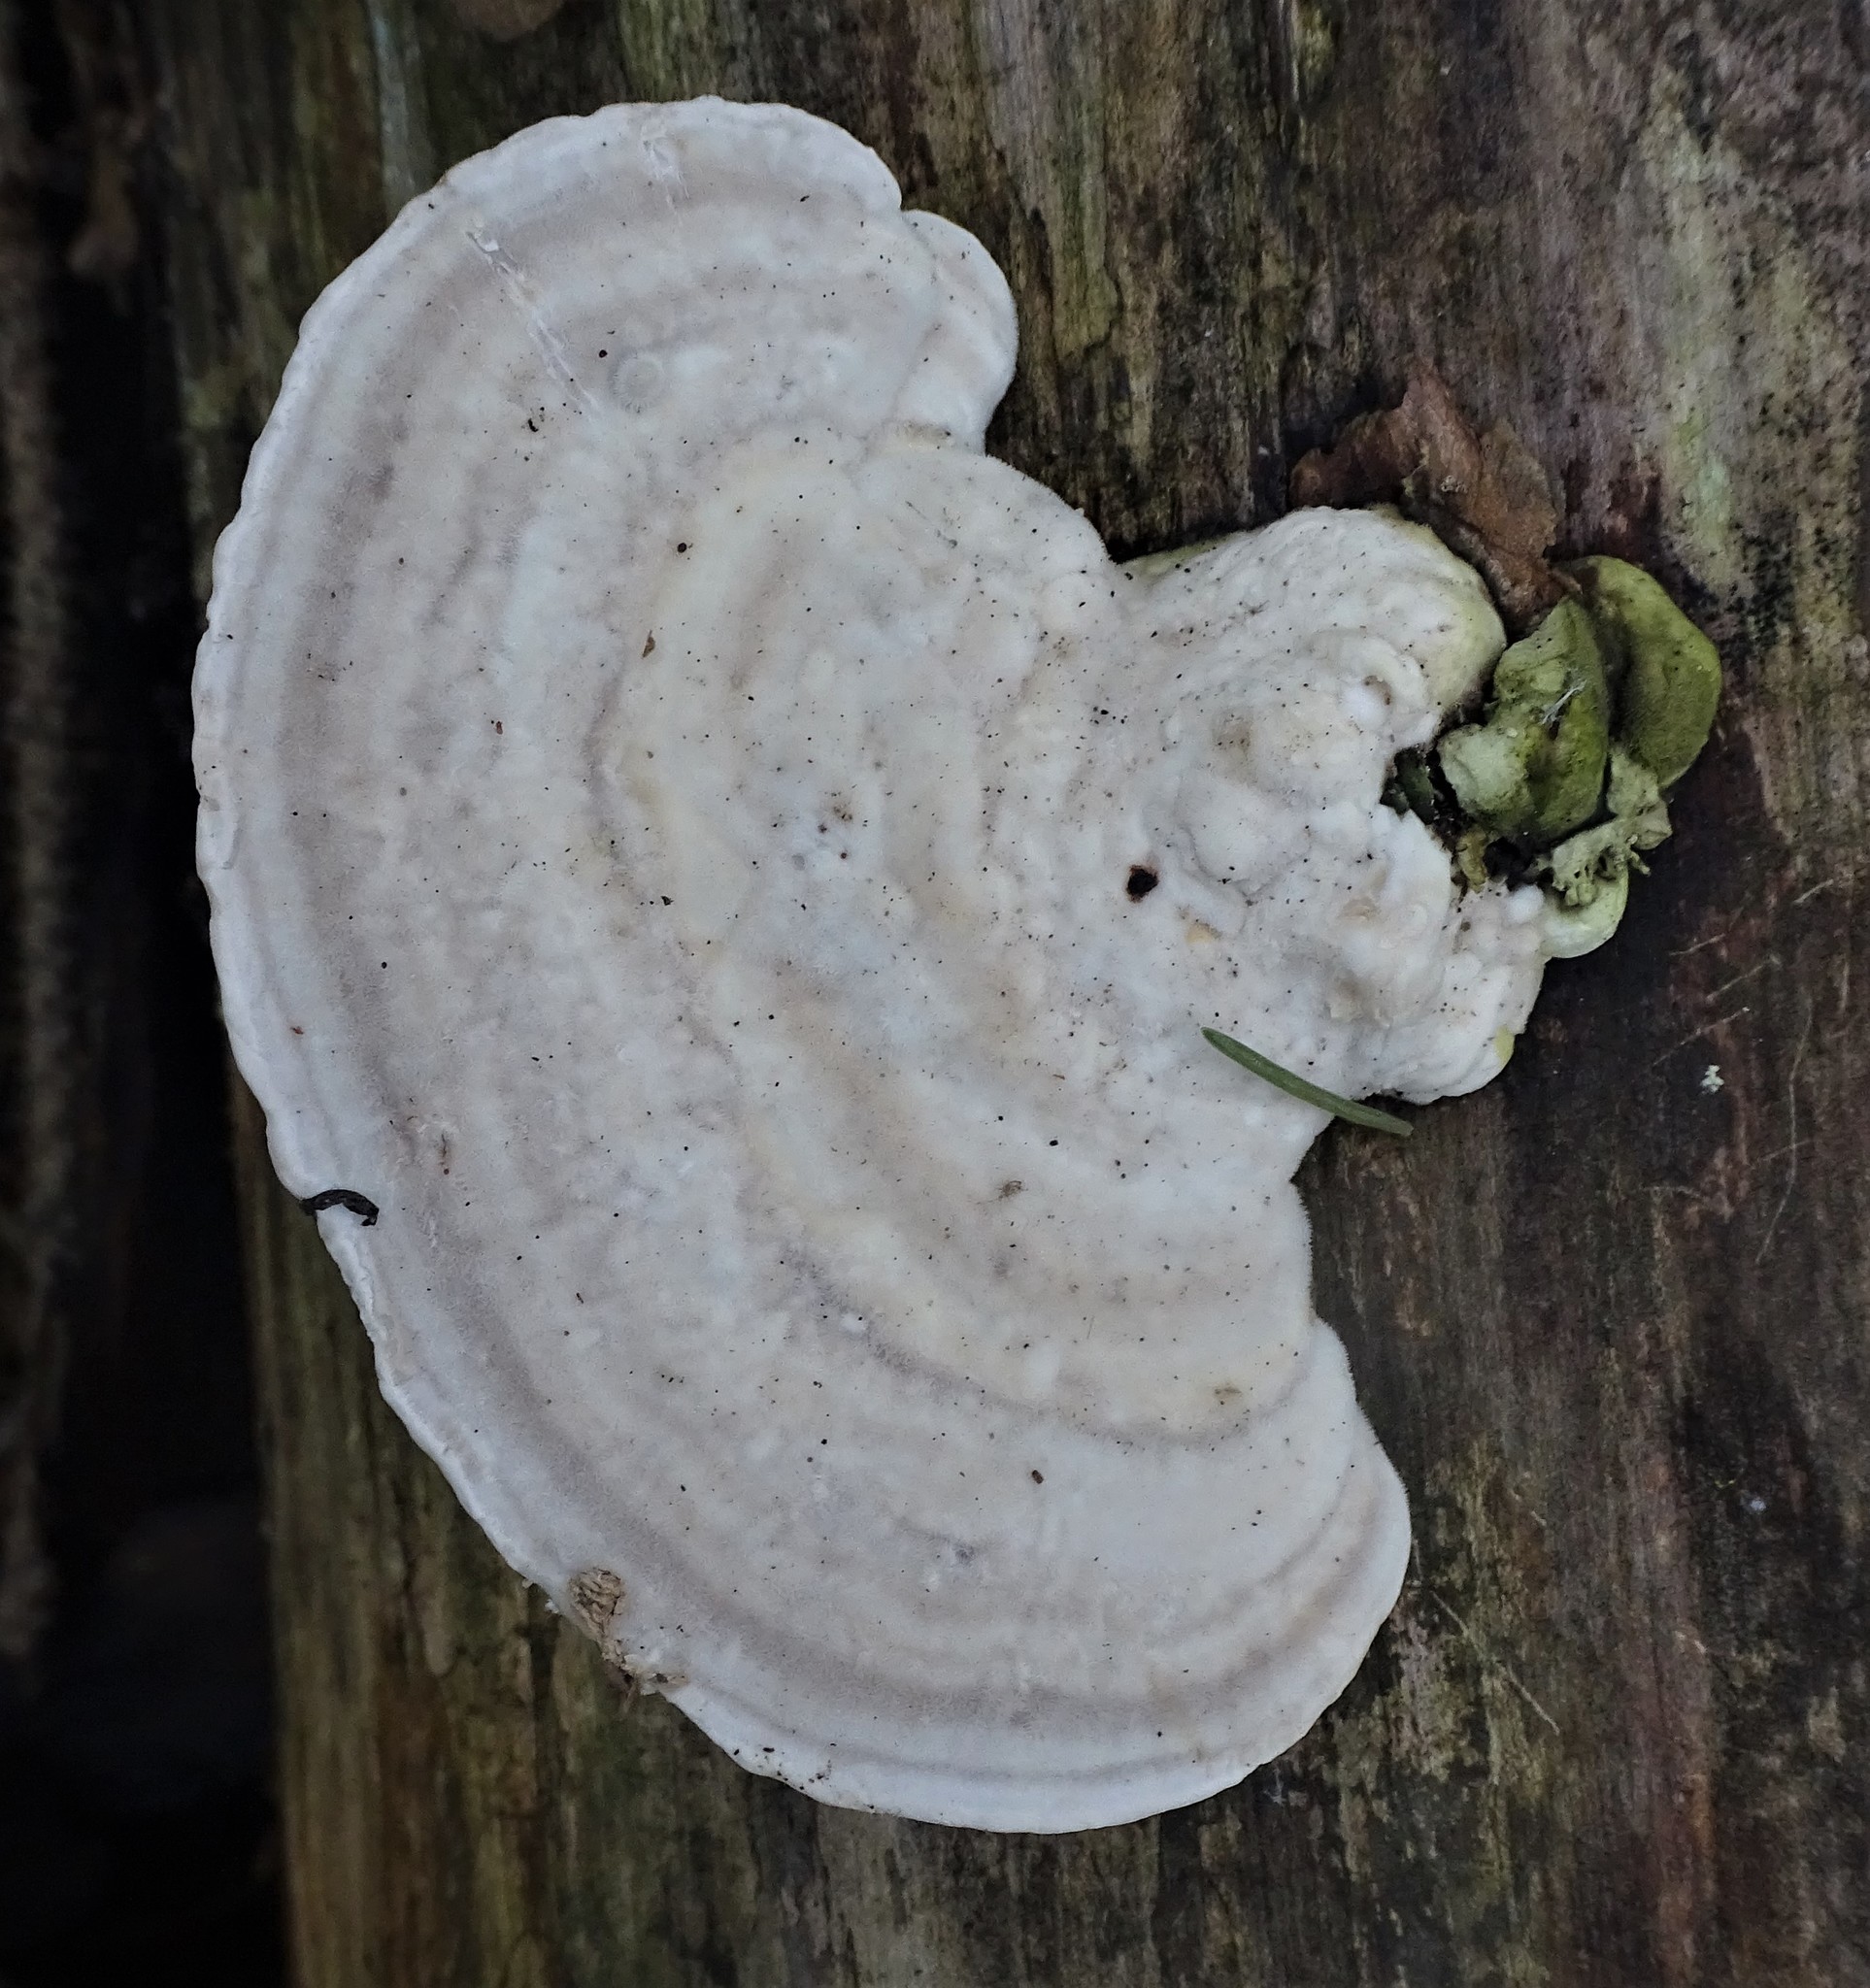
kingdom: Fungi
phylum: Basidiomycota
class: Agaricomycetes
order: Polyporales
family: Polyporaceae
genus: Trametes
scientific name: Trametes gibbosa
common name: Lumpy bracket
